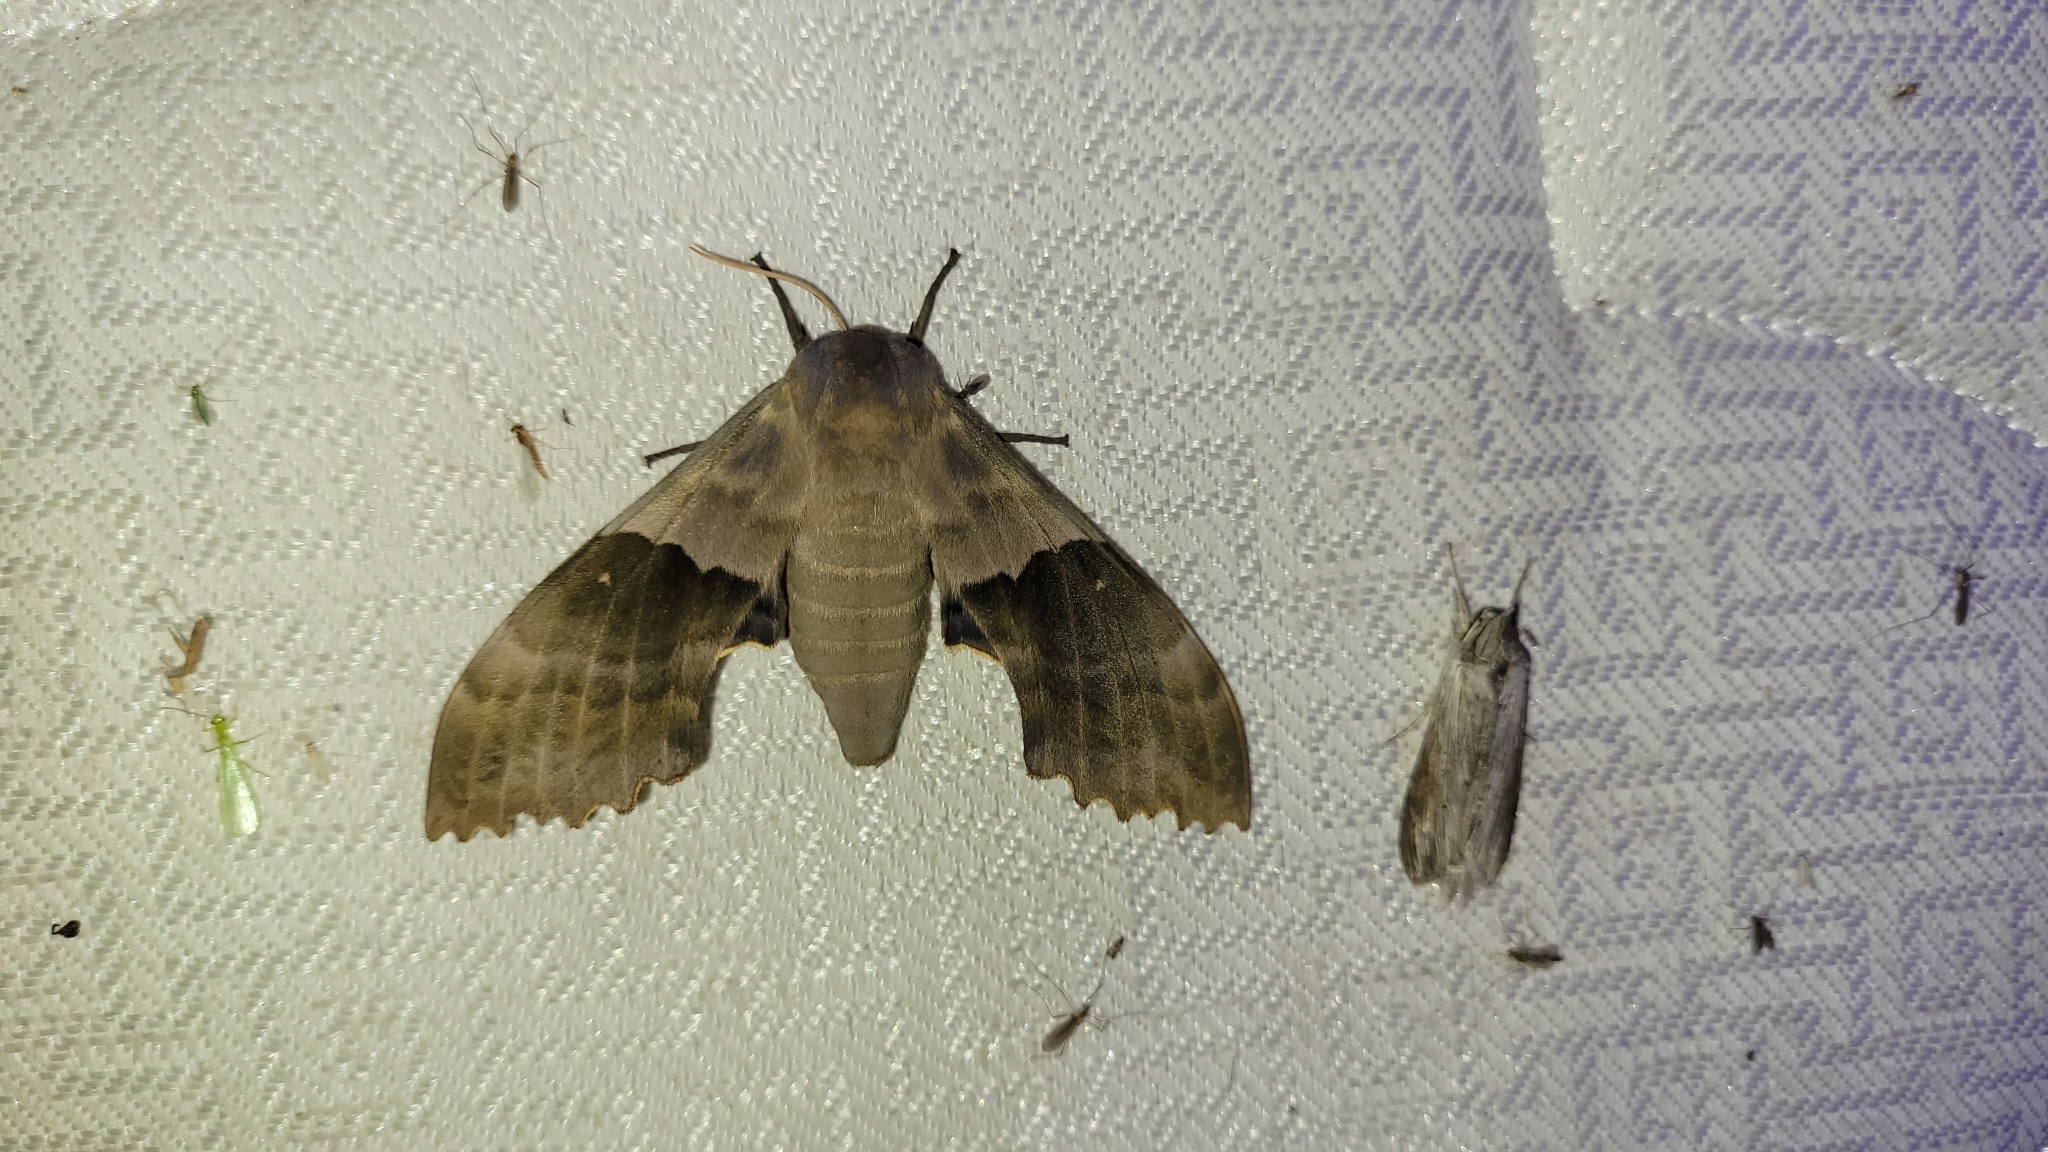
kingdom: Animalia
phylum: Arthropoda
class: Insecta
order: Lepidoptera
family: Sphingidae
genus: Pachysphinx
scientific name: Pachysphinx modesta
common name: Big poplar sphinx
